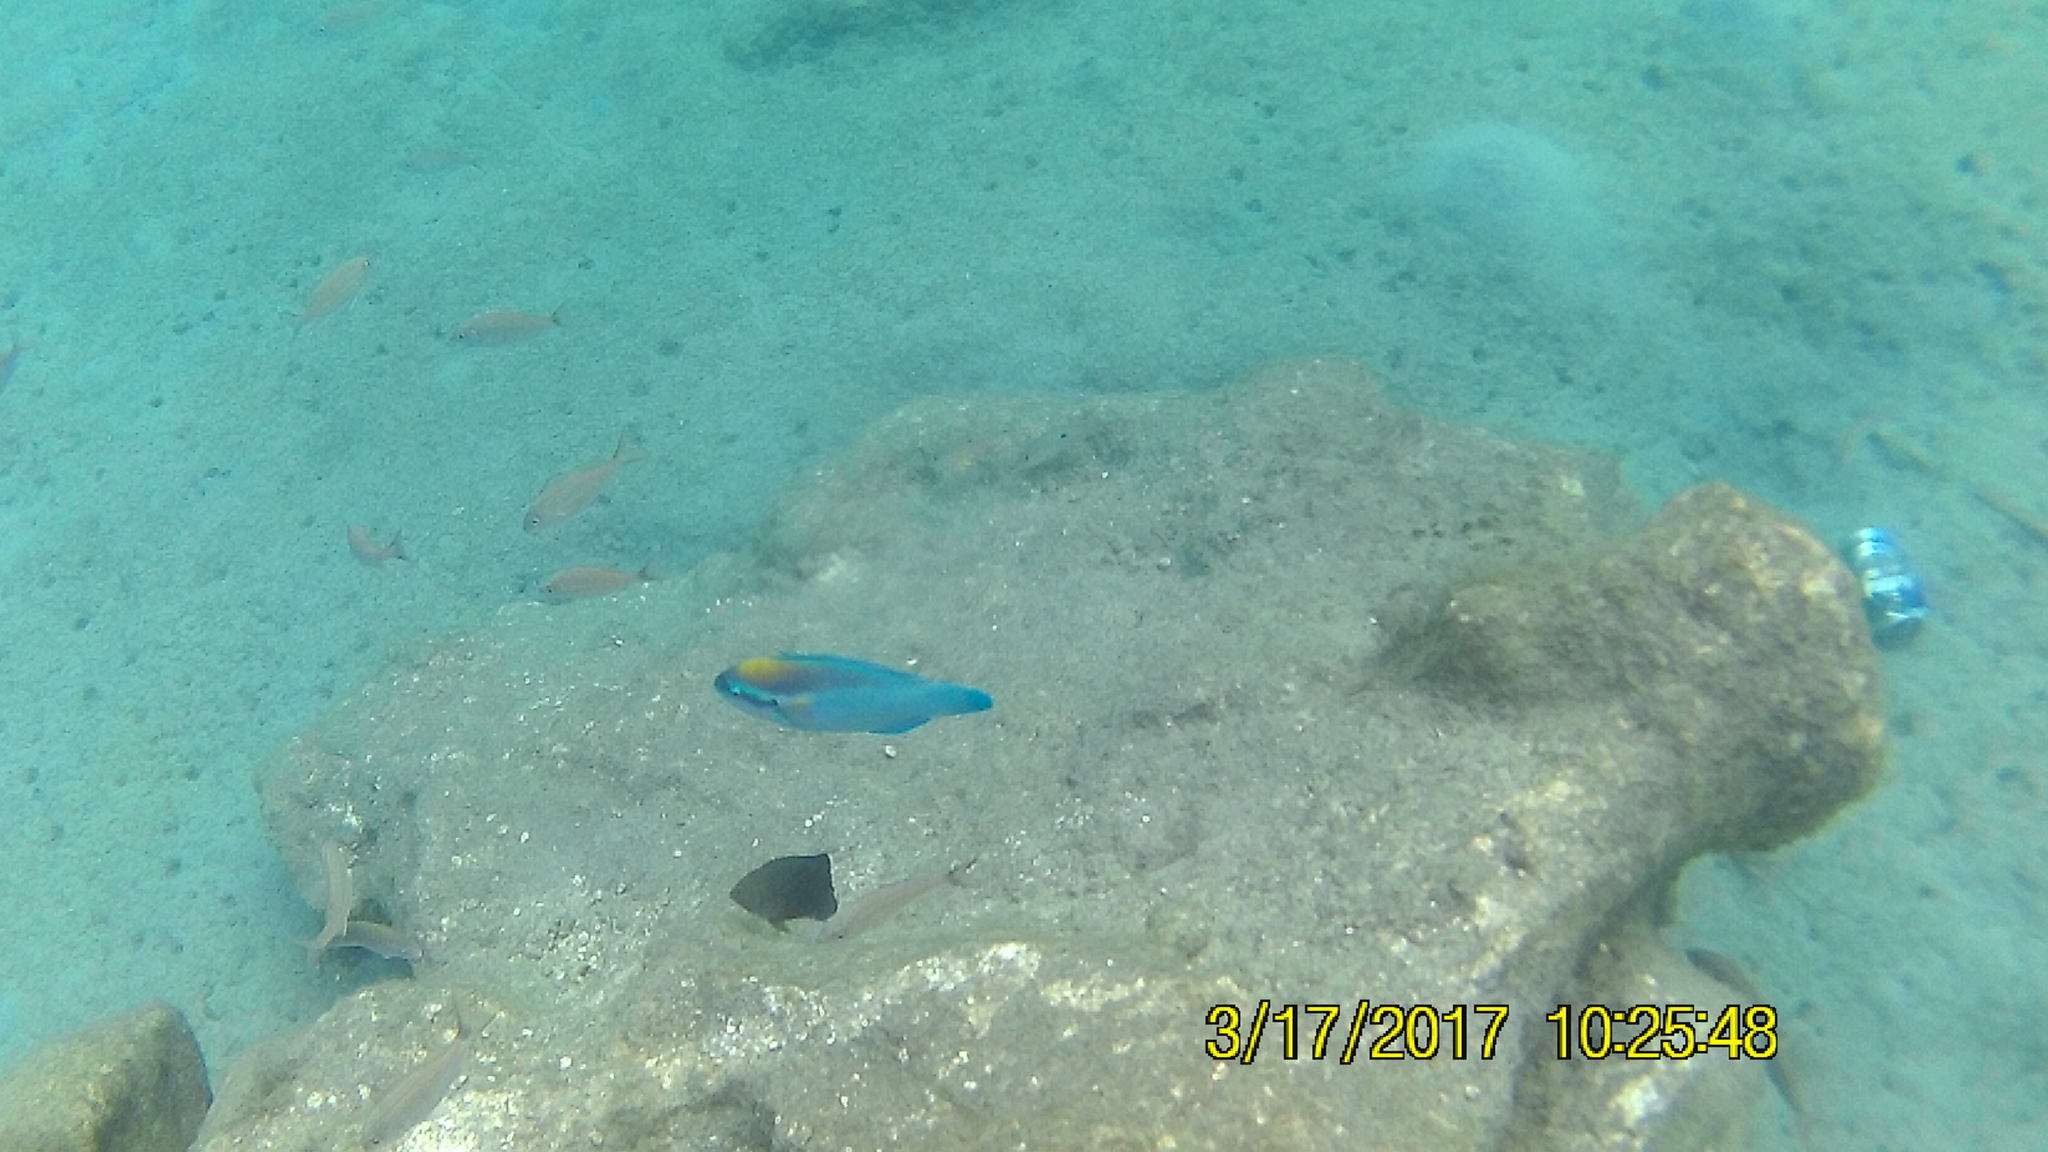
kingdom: Animalia
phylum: Chordata
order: Perciformes
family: Scaridae
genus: Scarus
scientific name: Scarus iseri
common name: Striped parrotfish
